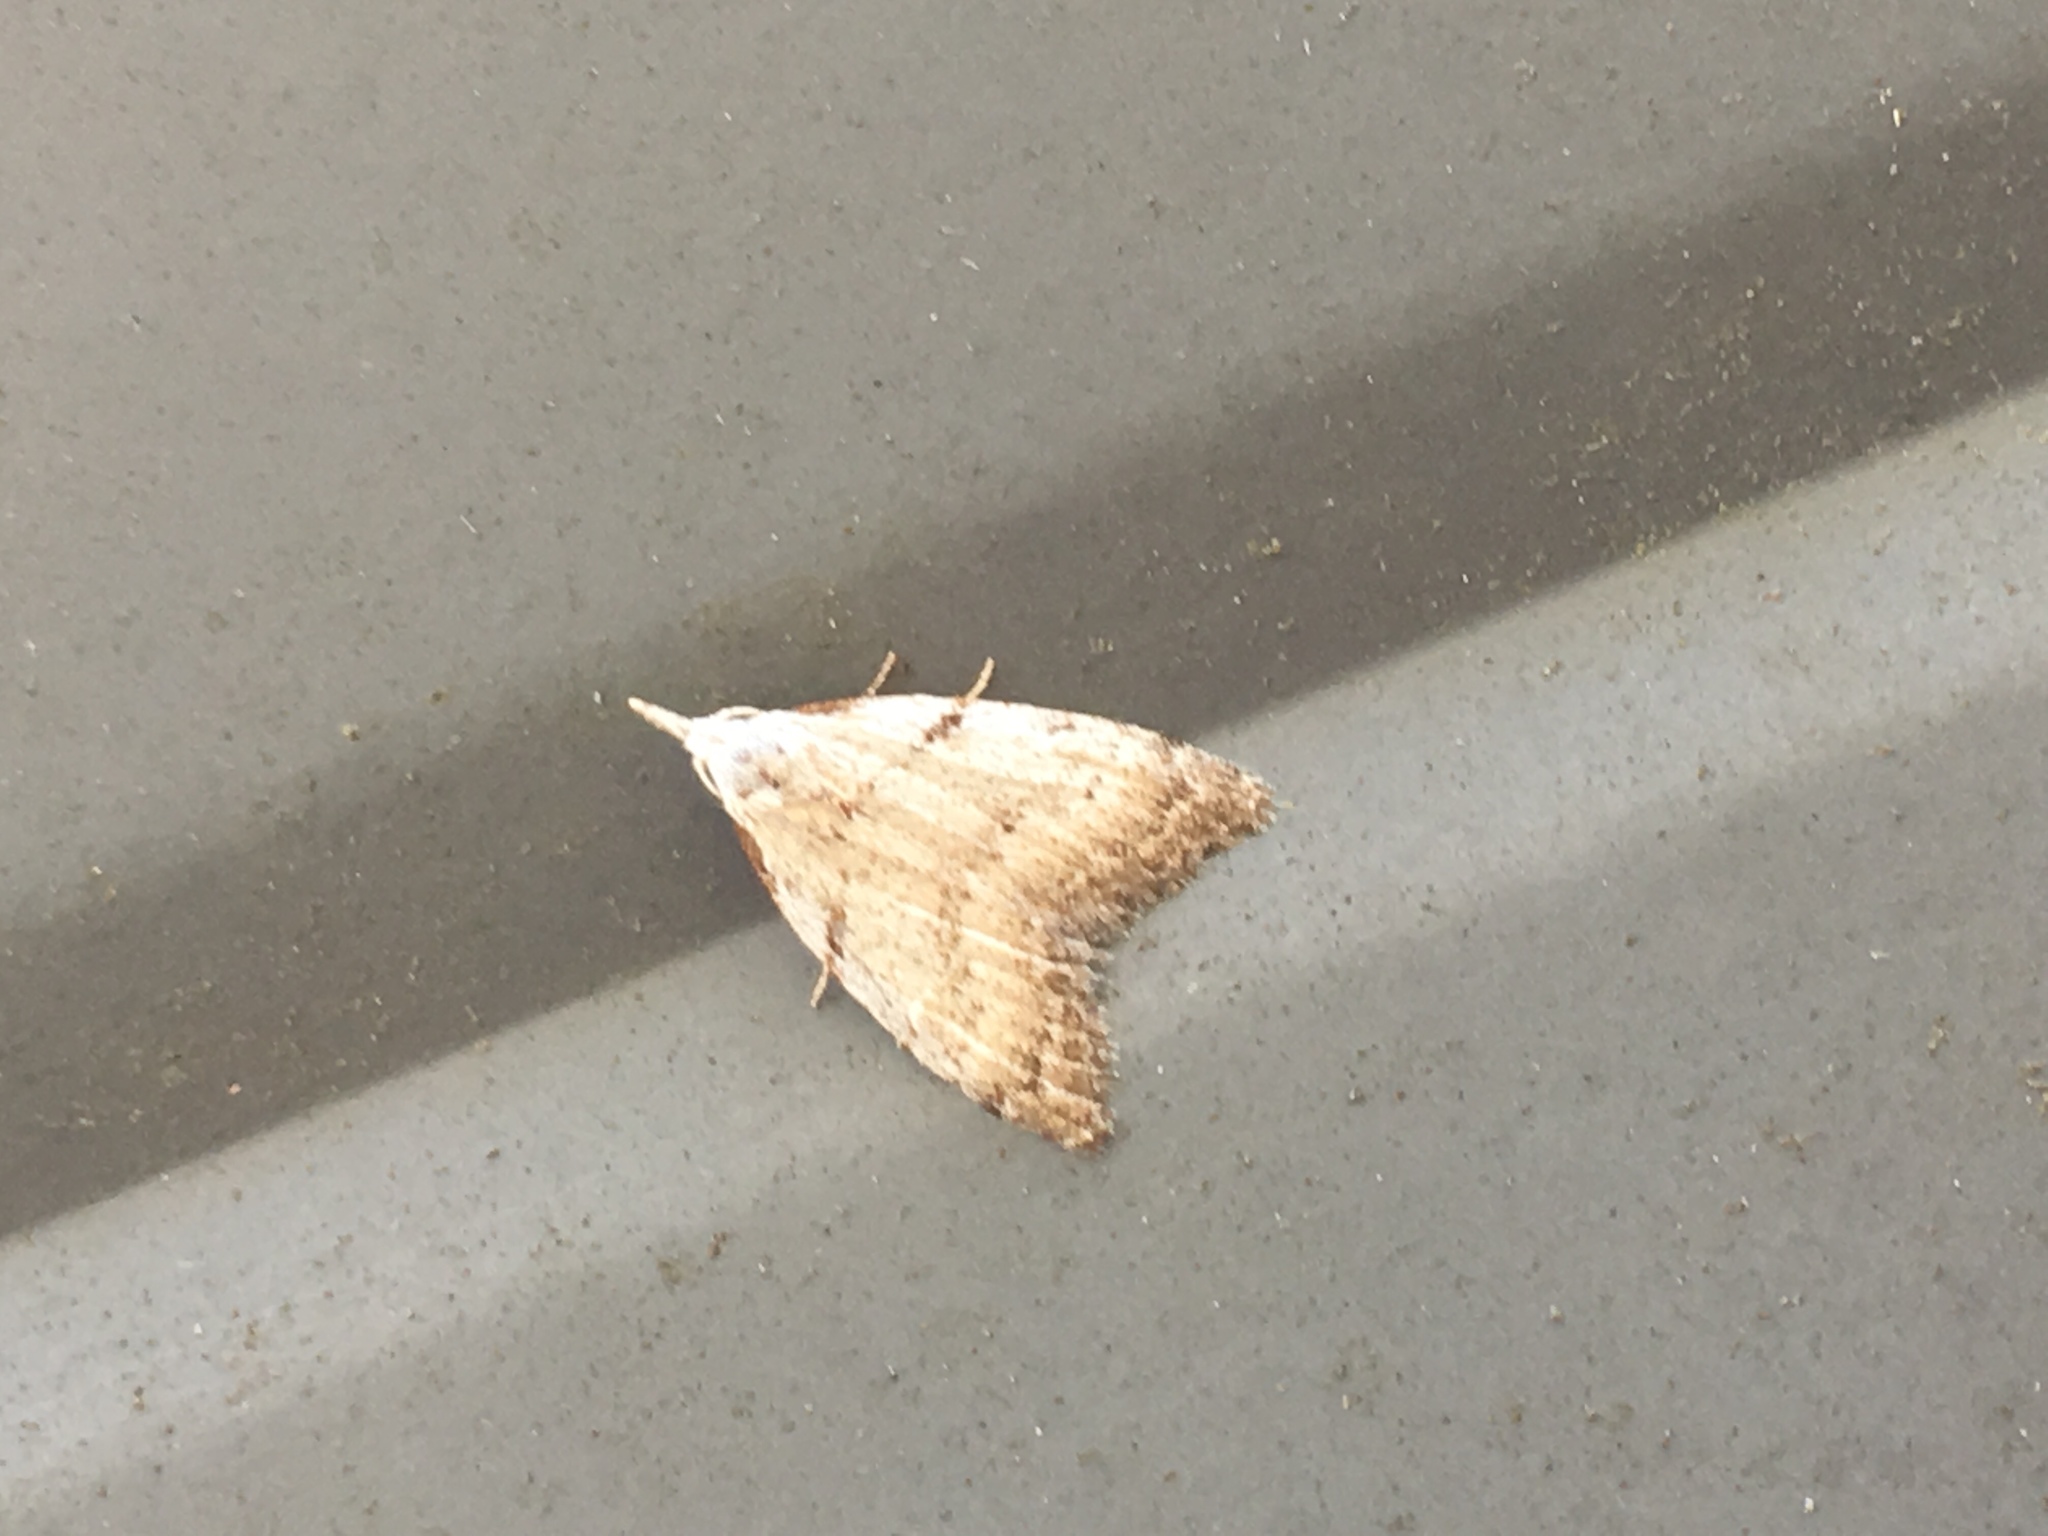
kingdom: Animalia
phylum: Arthropoda
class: Insecta
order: Lepidoptera
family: Nolidae
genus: Nola
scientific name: Nola minna
